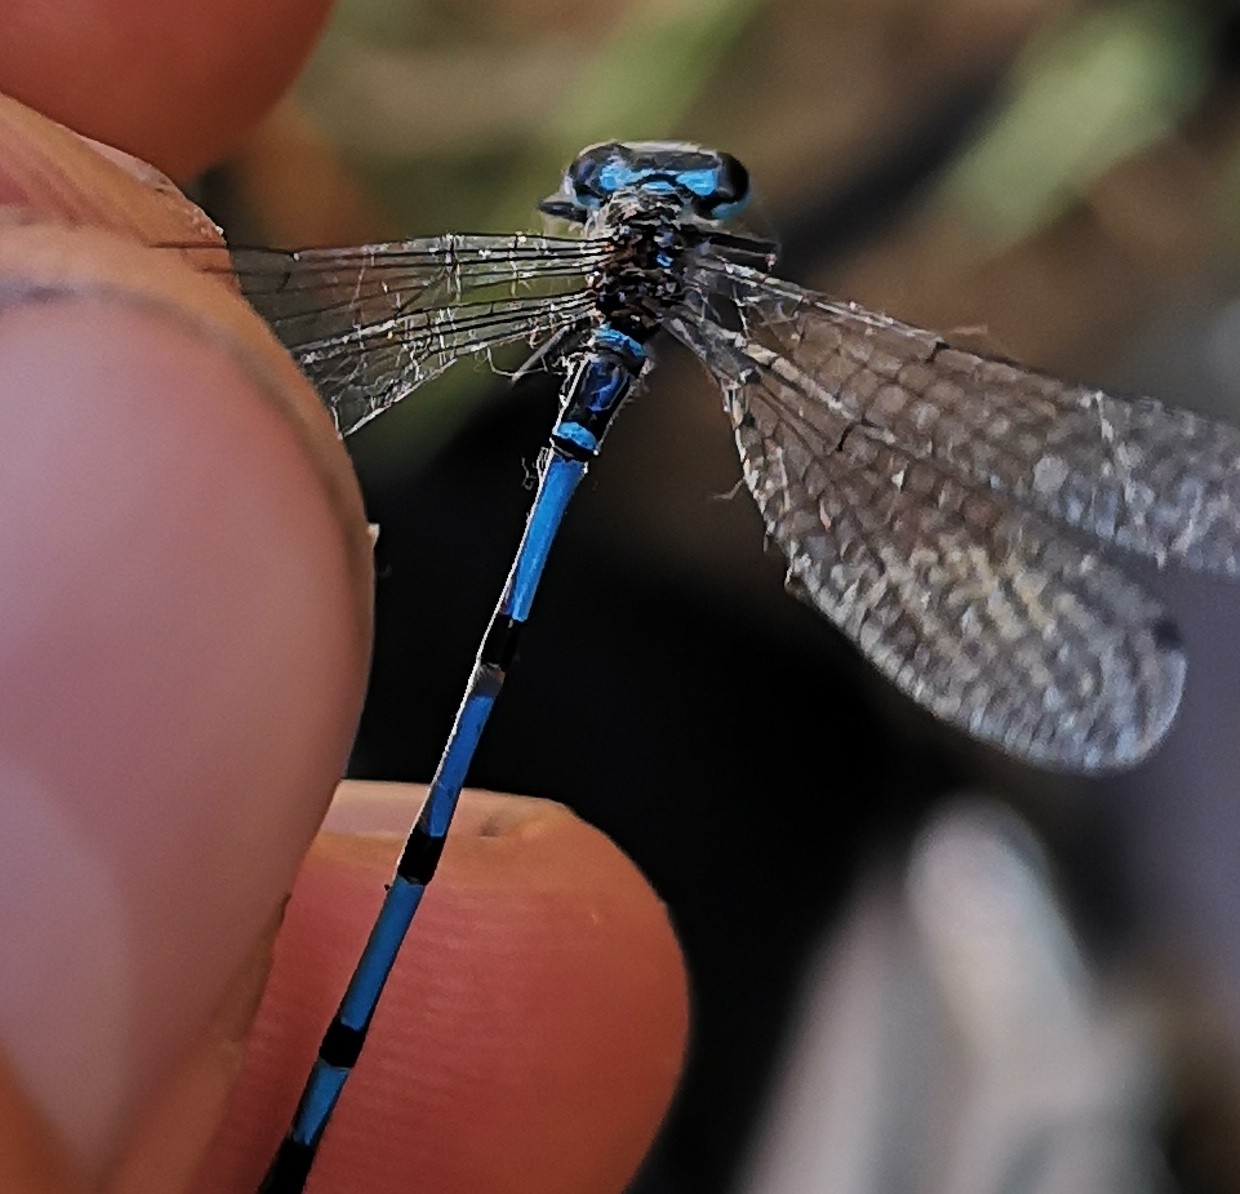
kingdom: Animalia
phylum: Arthropoda
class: Insecta
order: Odonata
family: Coenagrionidae
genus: Coenagrion
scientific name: Coenagrion puella
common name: Azure damselfly
